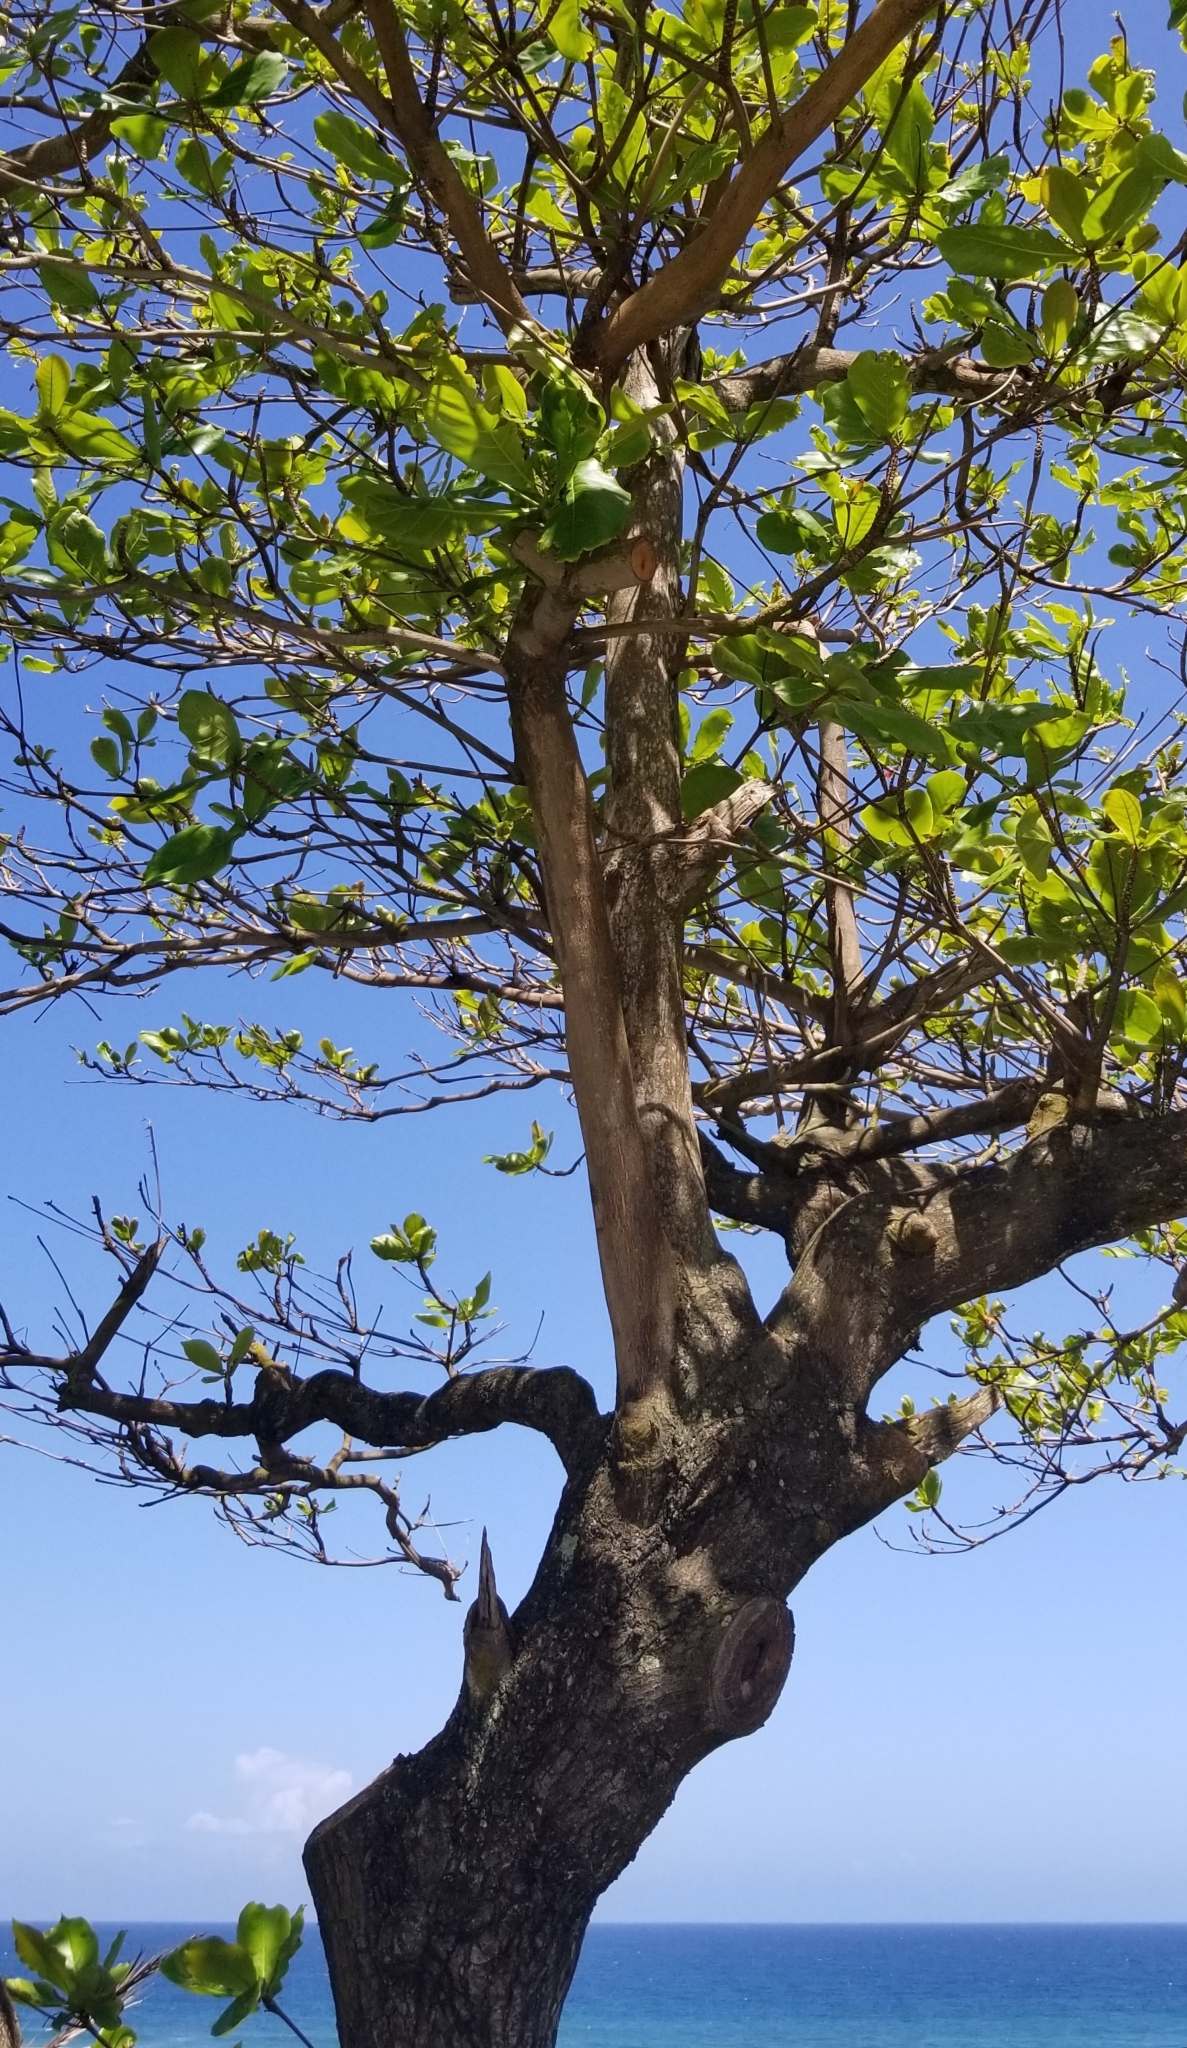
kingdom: Plantae
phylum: Tracheophyta
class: Magnoliopsida
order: Myrtales
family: Combretaceae
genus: Terminalia
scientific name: Terminalia catappa
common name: Tropical almond
